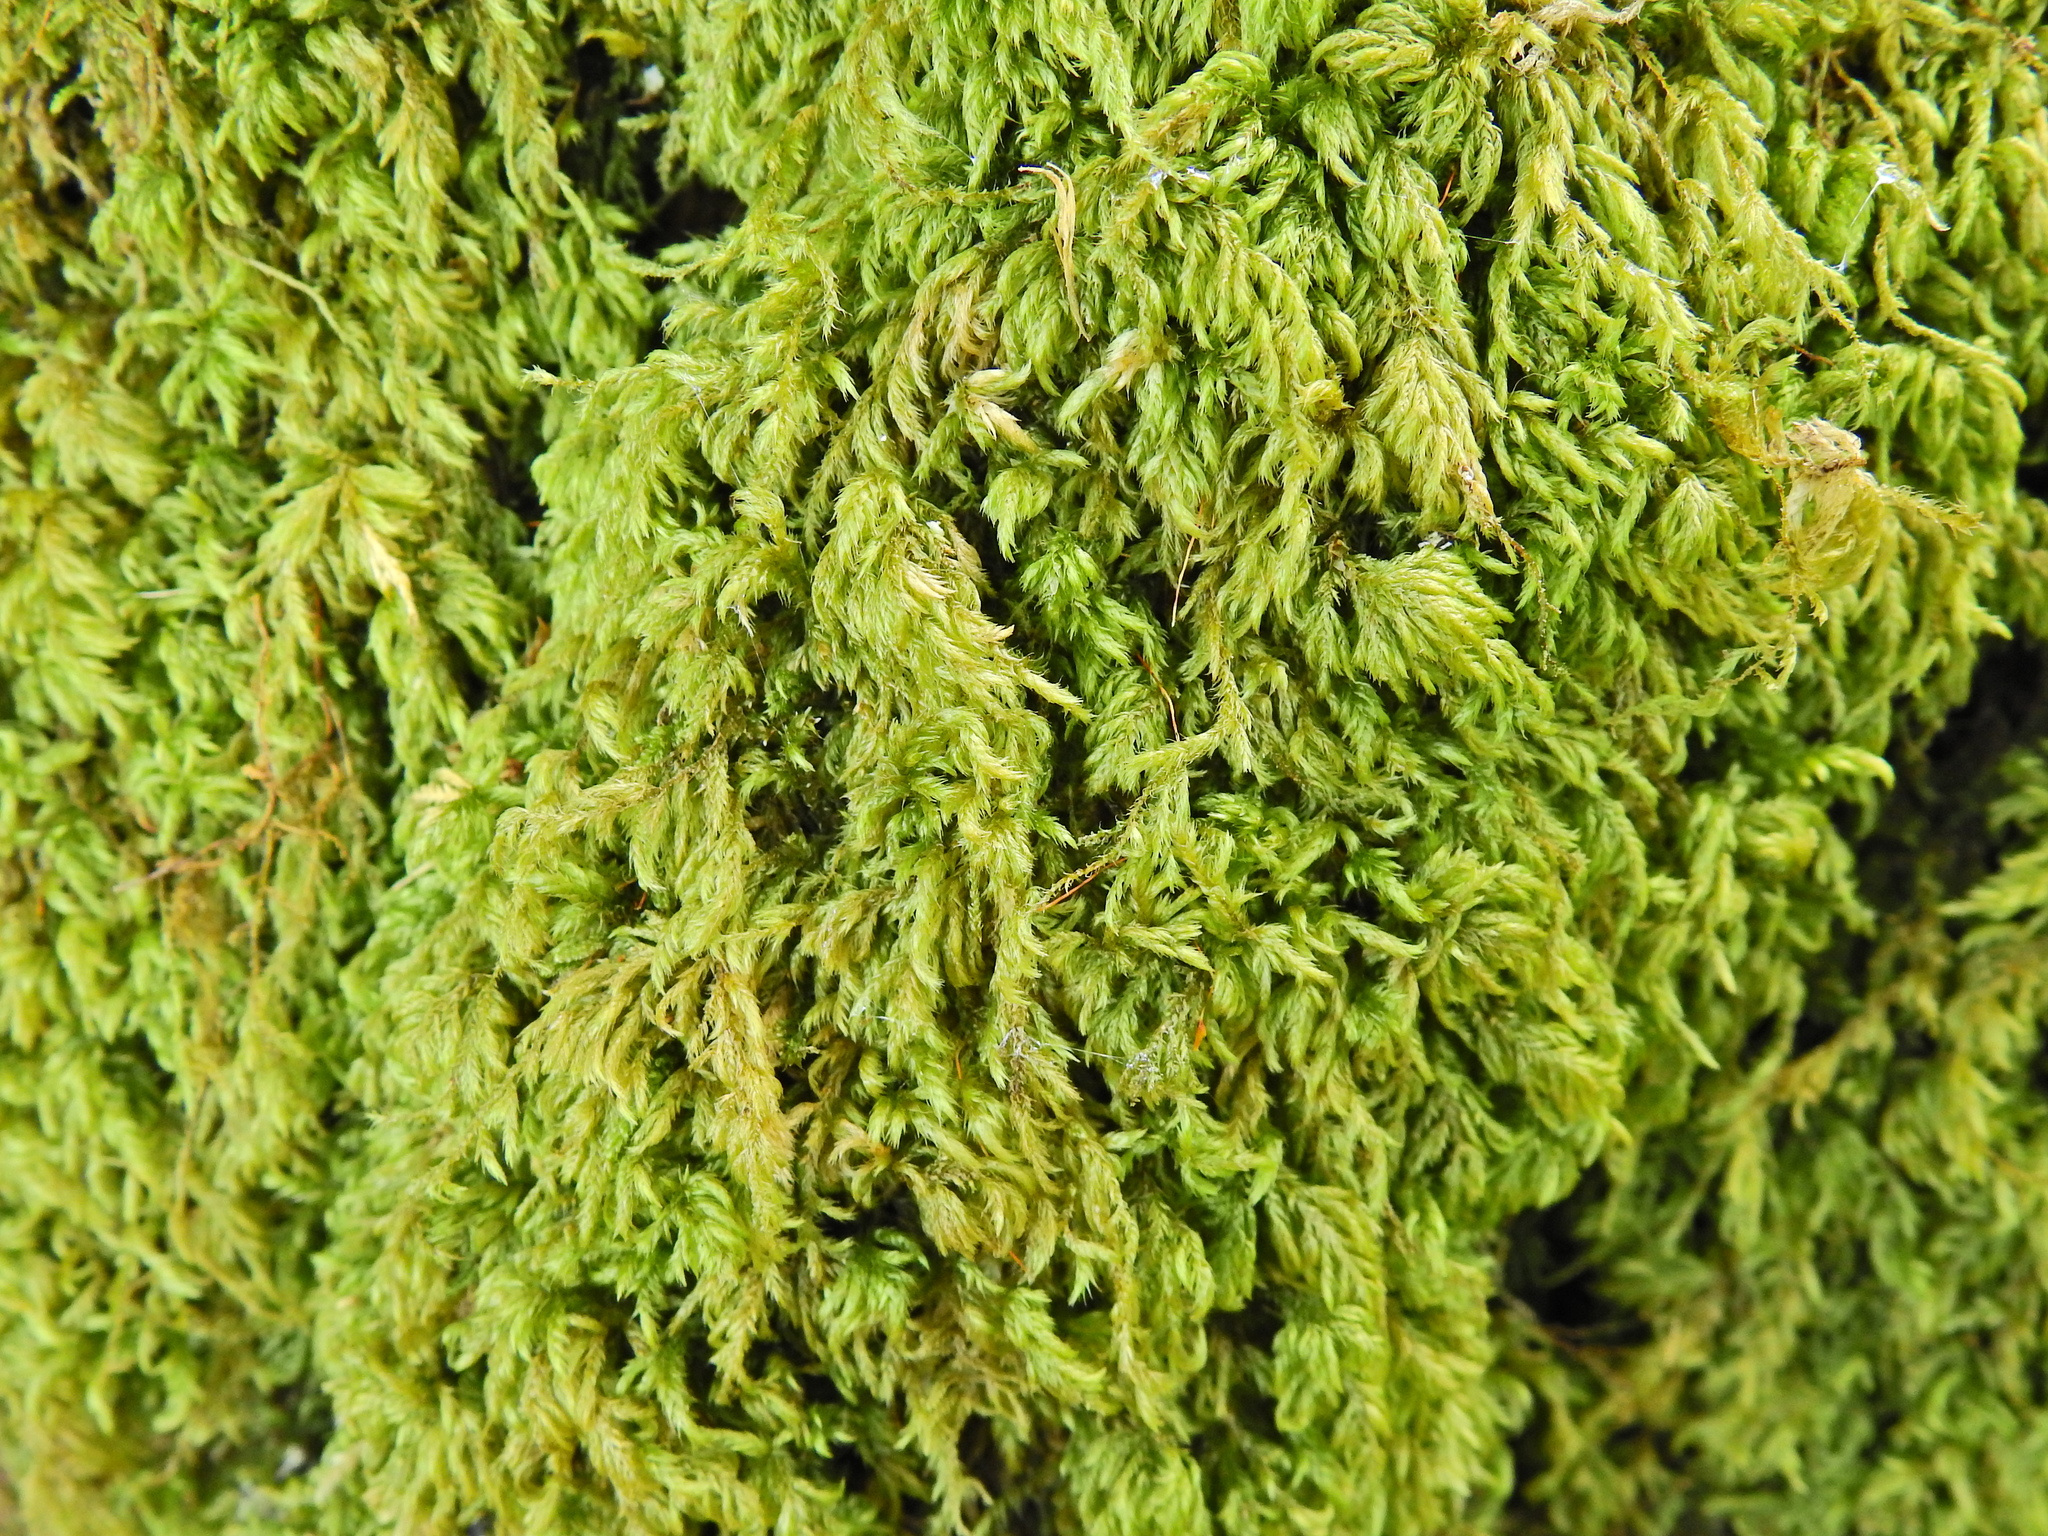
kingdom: Plantae
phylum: Bryophyta
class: Bryopsida
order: Hypnales
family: Lembophyllaceae
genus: Pseudisothecium
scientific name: Pseudisothecium myosuroides
